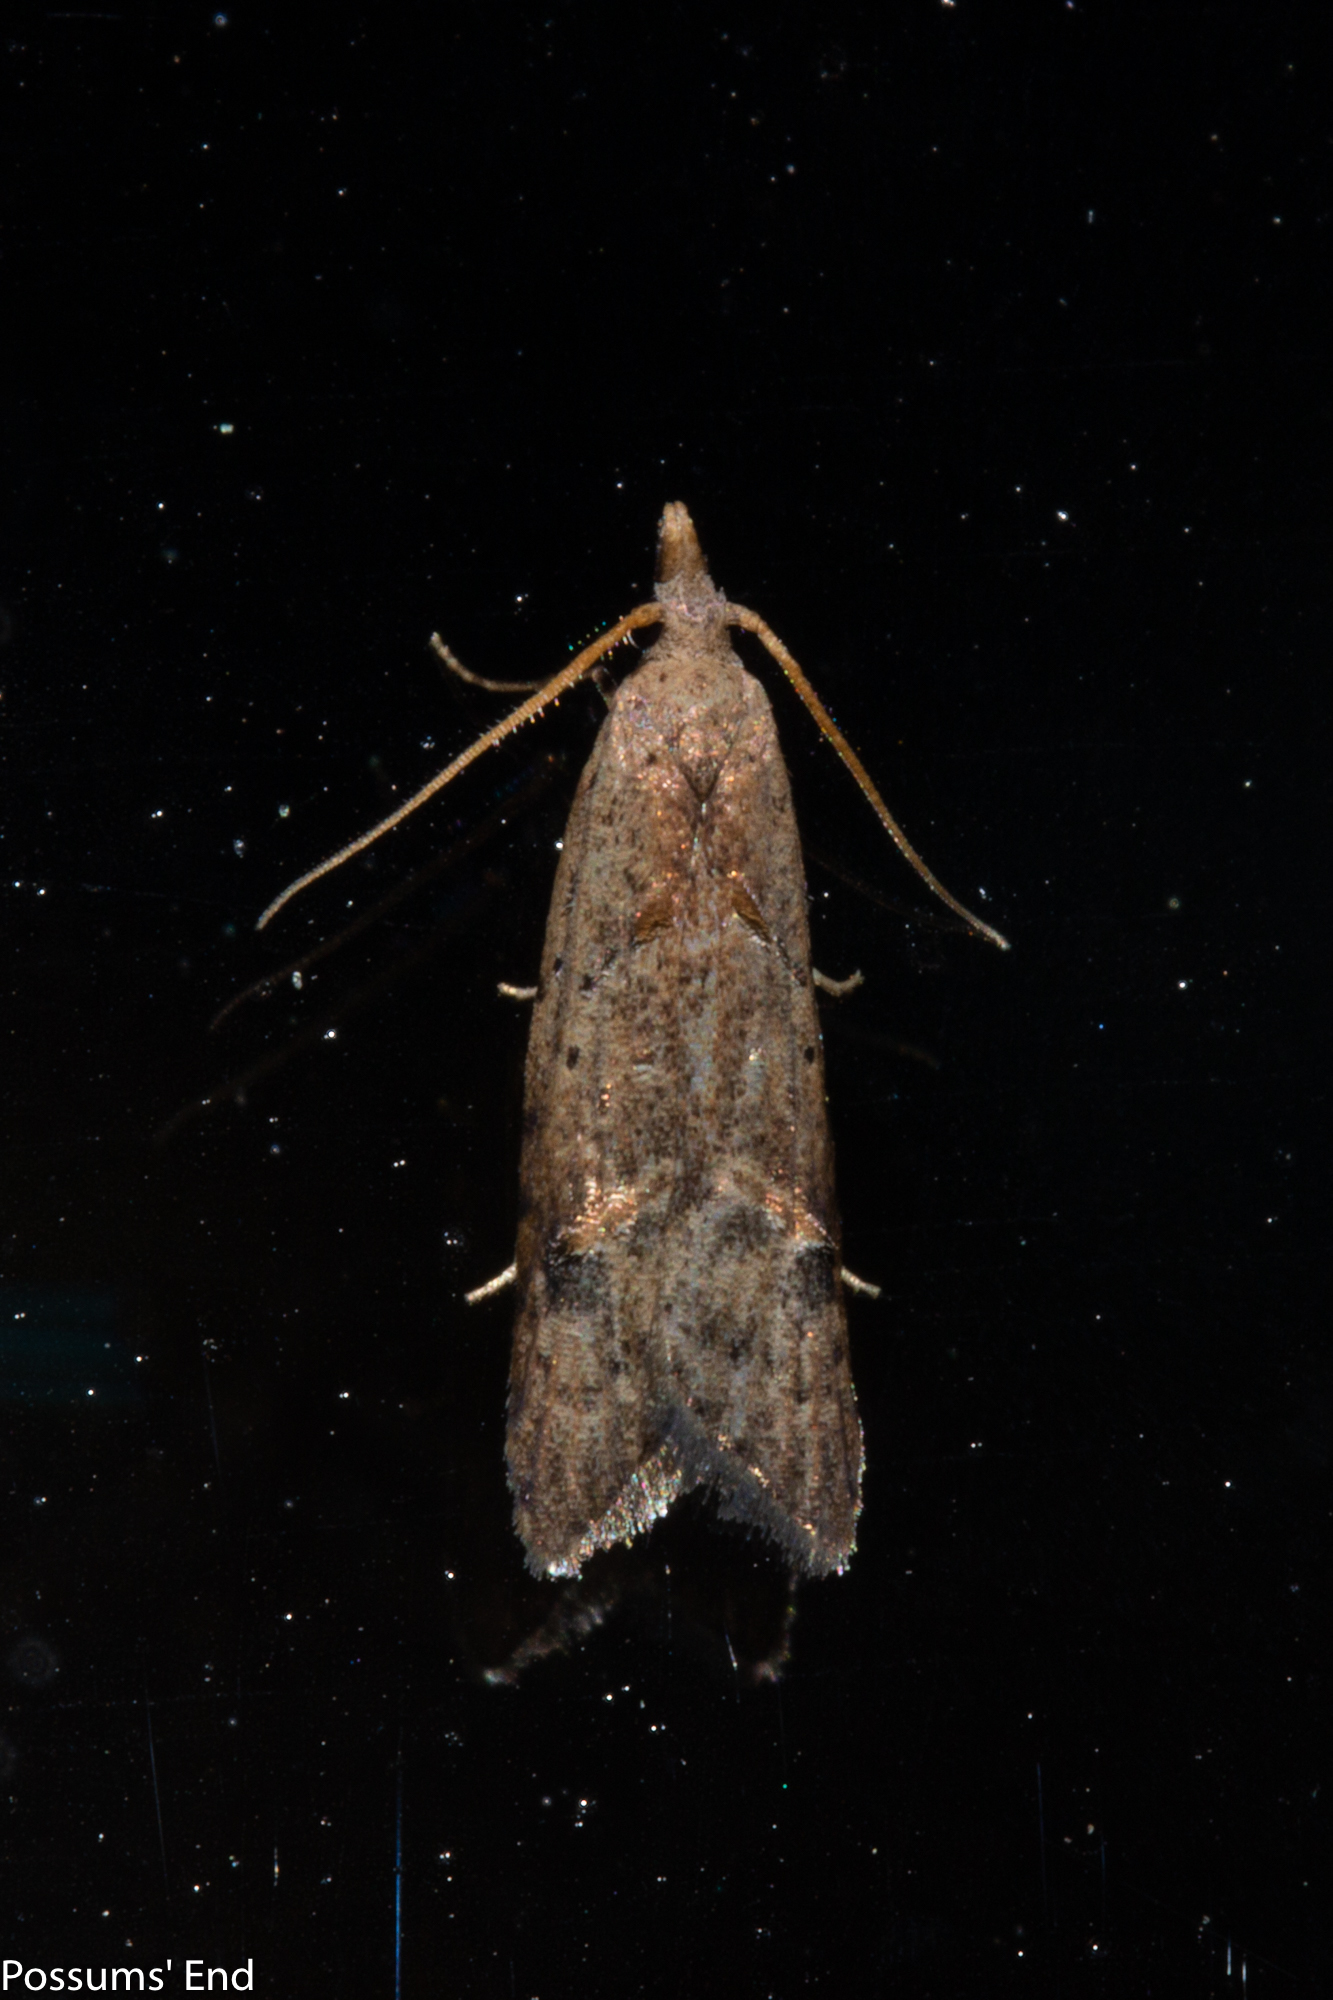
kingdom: Animalia
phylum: Arthropoda
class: Insecta
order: Lepidoptera
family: Carposinidae
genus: Carposina
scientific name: Carposina rubophaga
